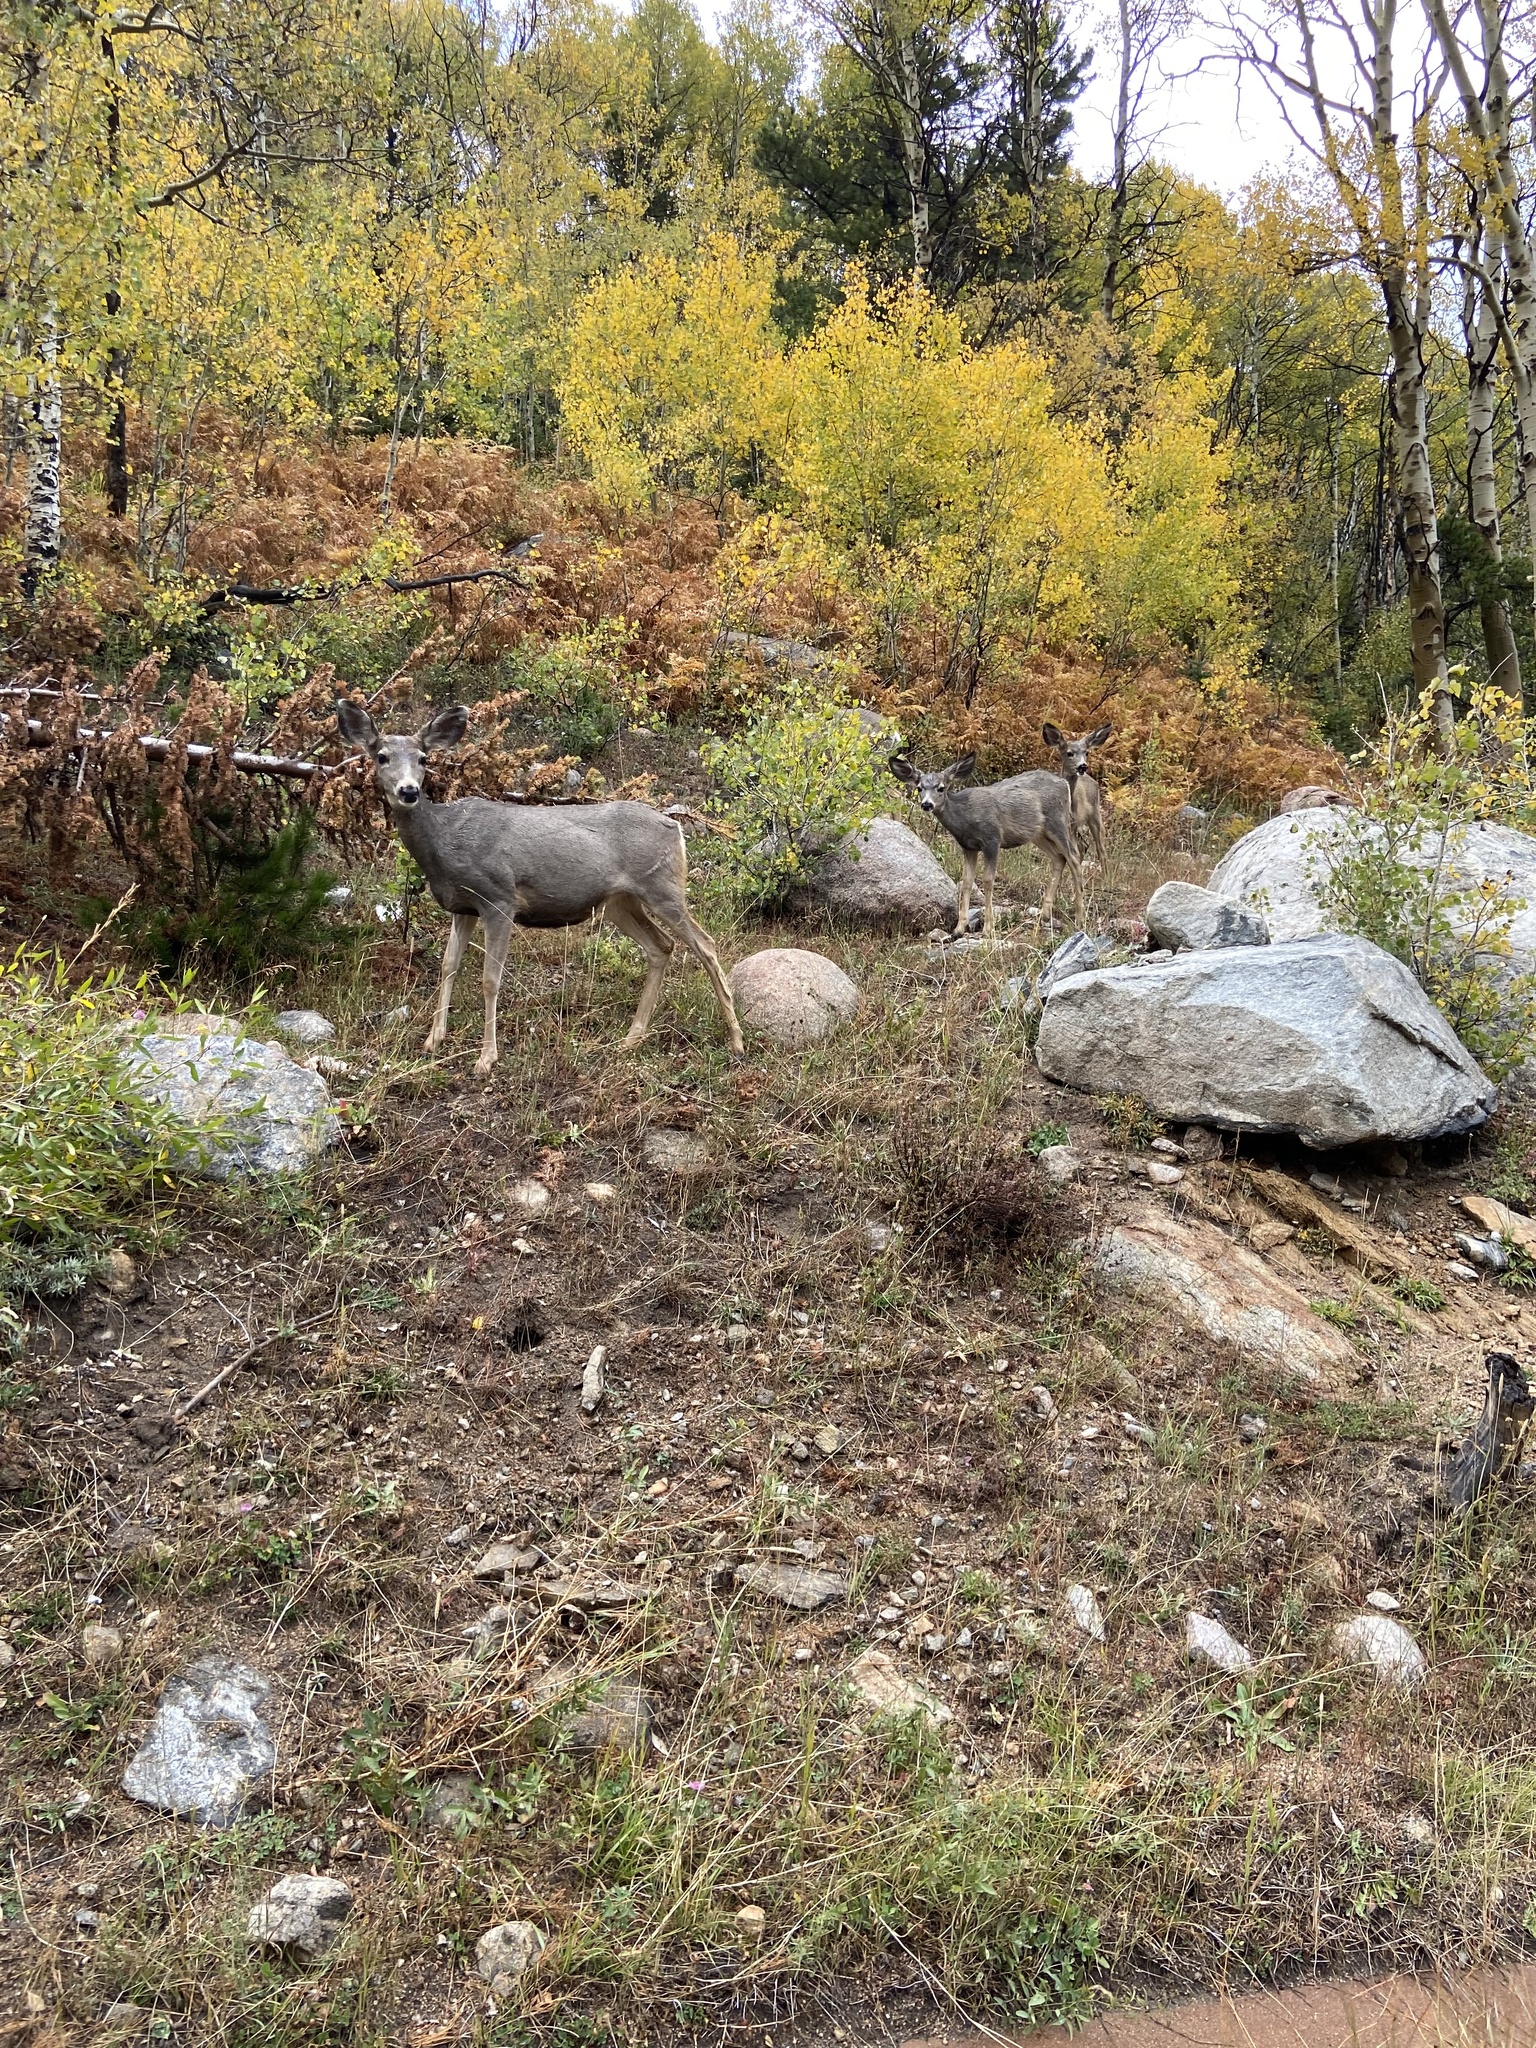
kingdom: Animalia
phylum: Chordata
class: Mammalia
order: Artiodactyla
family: Cervidae
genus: Odocoileus
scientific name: Odocoileus hemionus
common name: Mule deer
